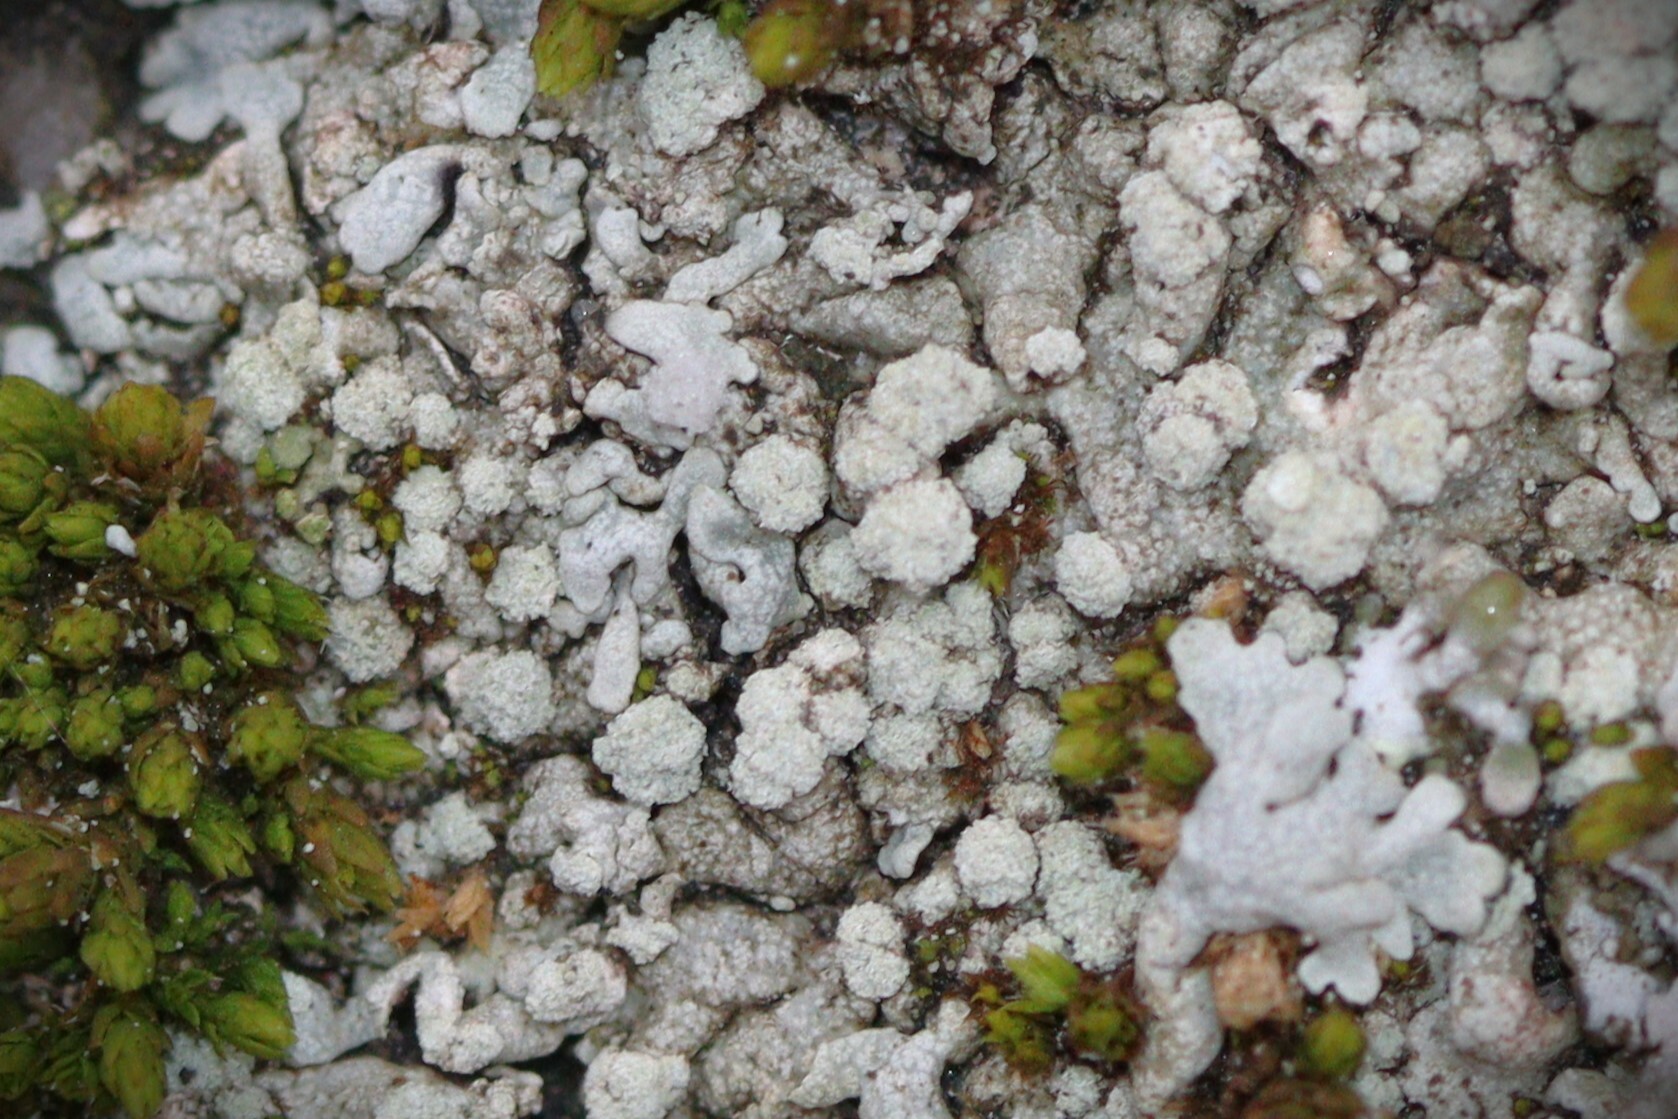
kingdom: Fungi
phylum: Ascomycota
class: Lecanoromycetes
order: Caliciales
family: Physciaceae
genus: Physcia
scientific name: Physcia caesia
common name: Blue-gray rosette lichen
